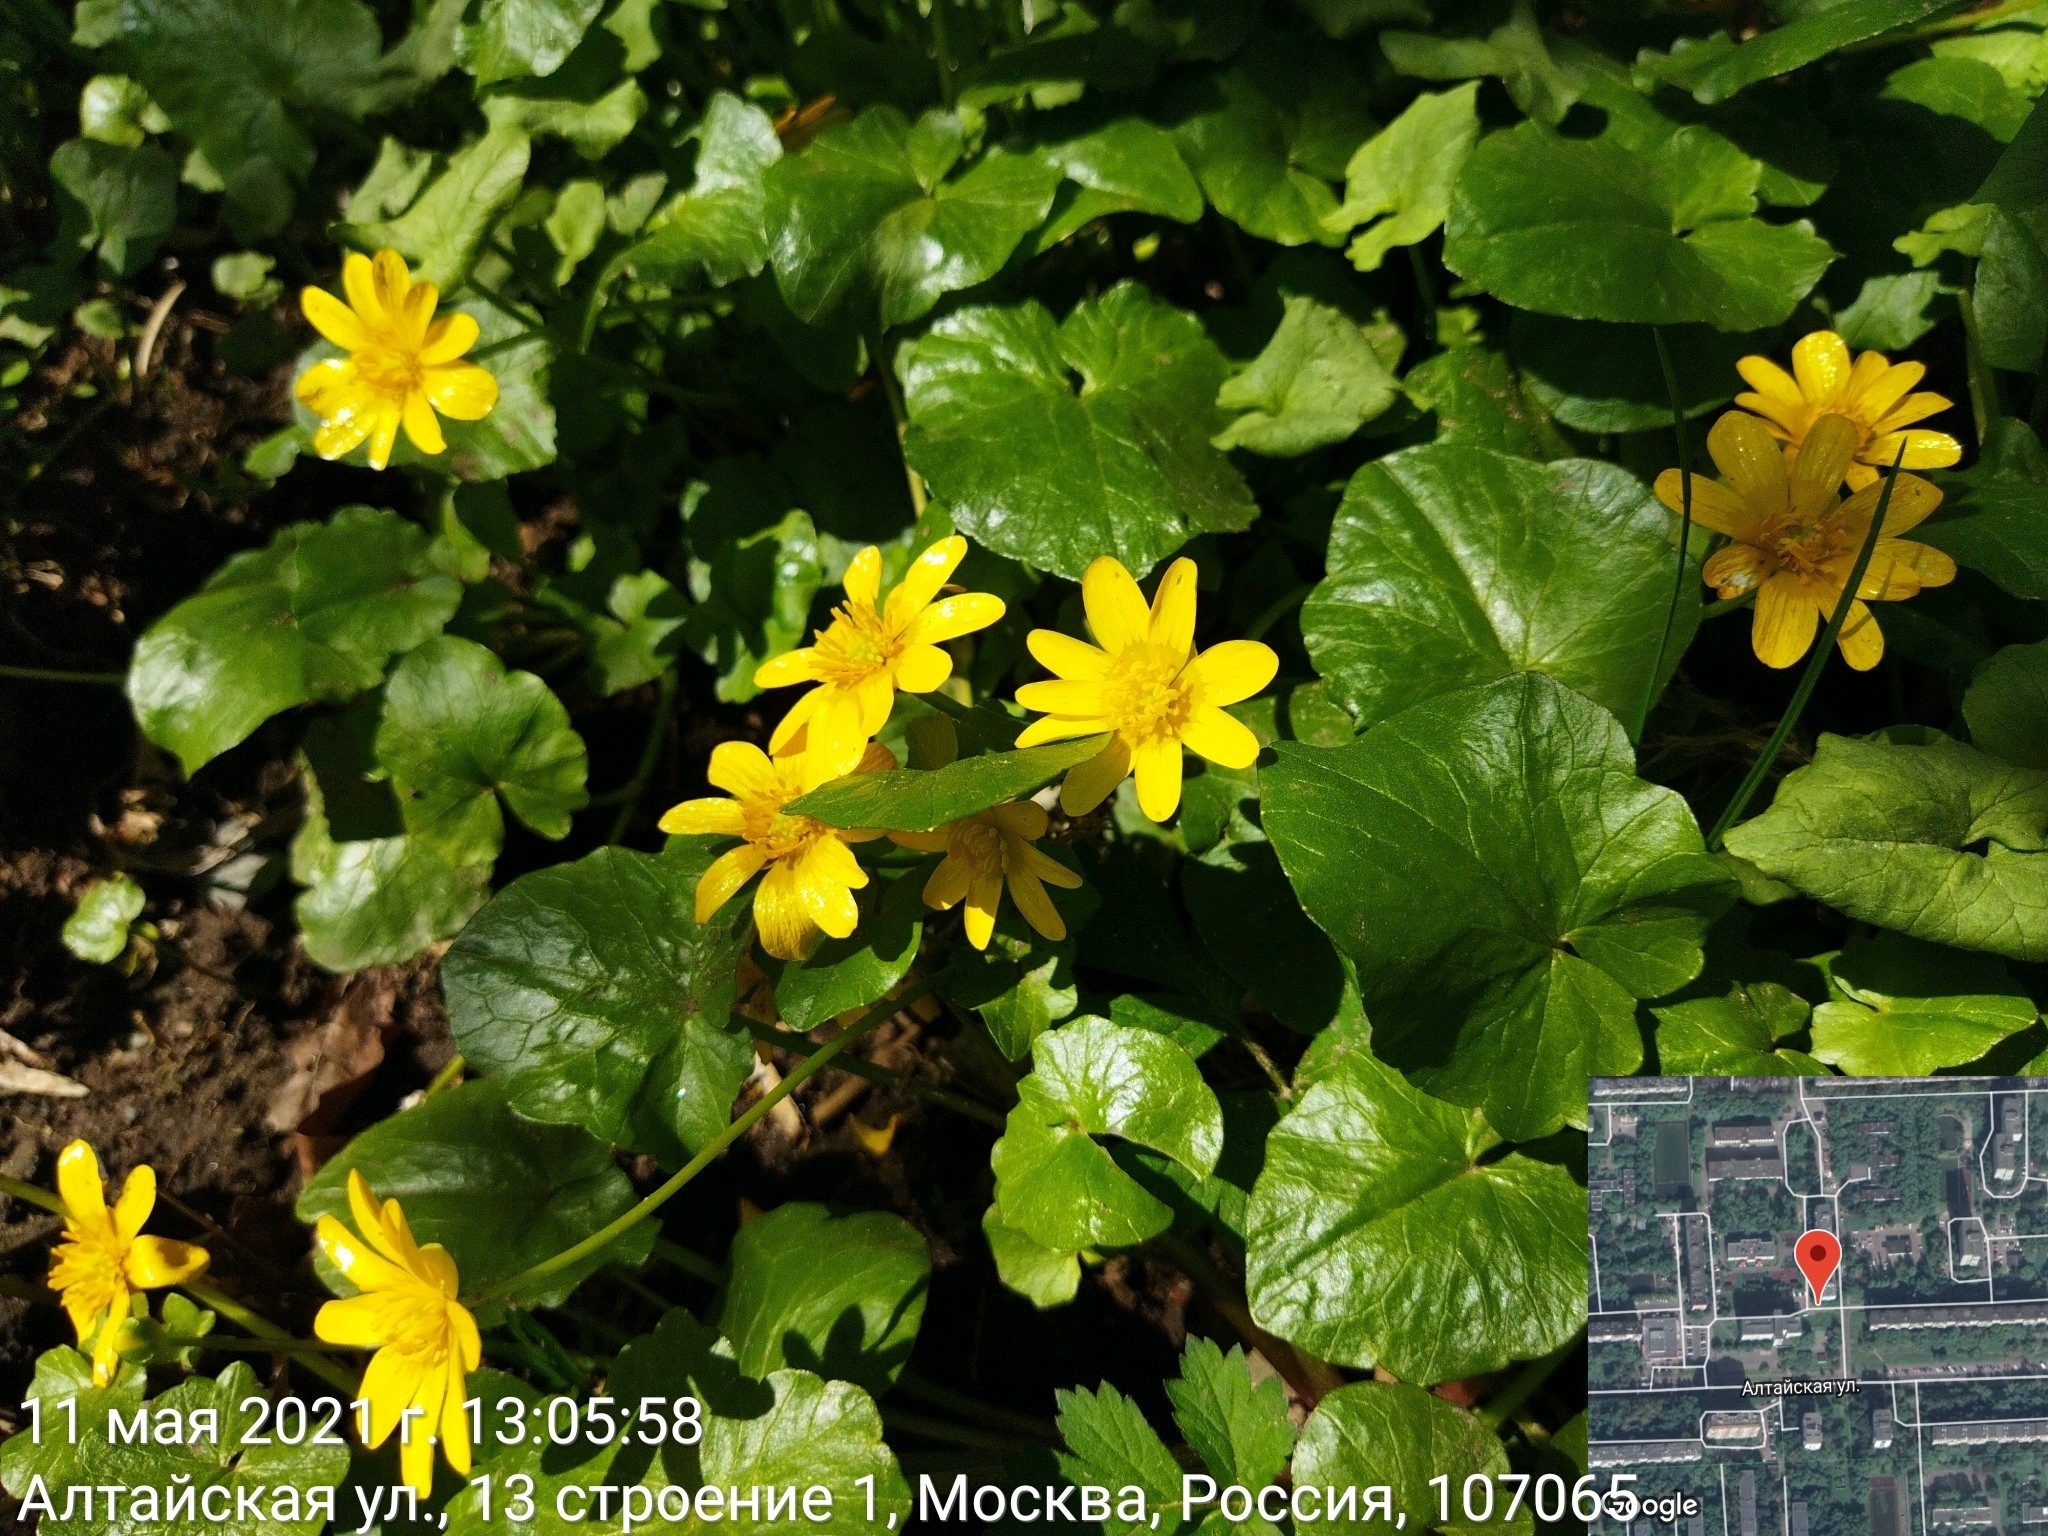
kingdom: Plantae
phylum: Tracheophyta
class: Magnoliopsida
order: Ranunculales
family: Ranunculaceae
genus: Ficaria
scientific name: Ficaria verna
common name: Lesser celandine
